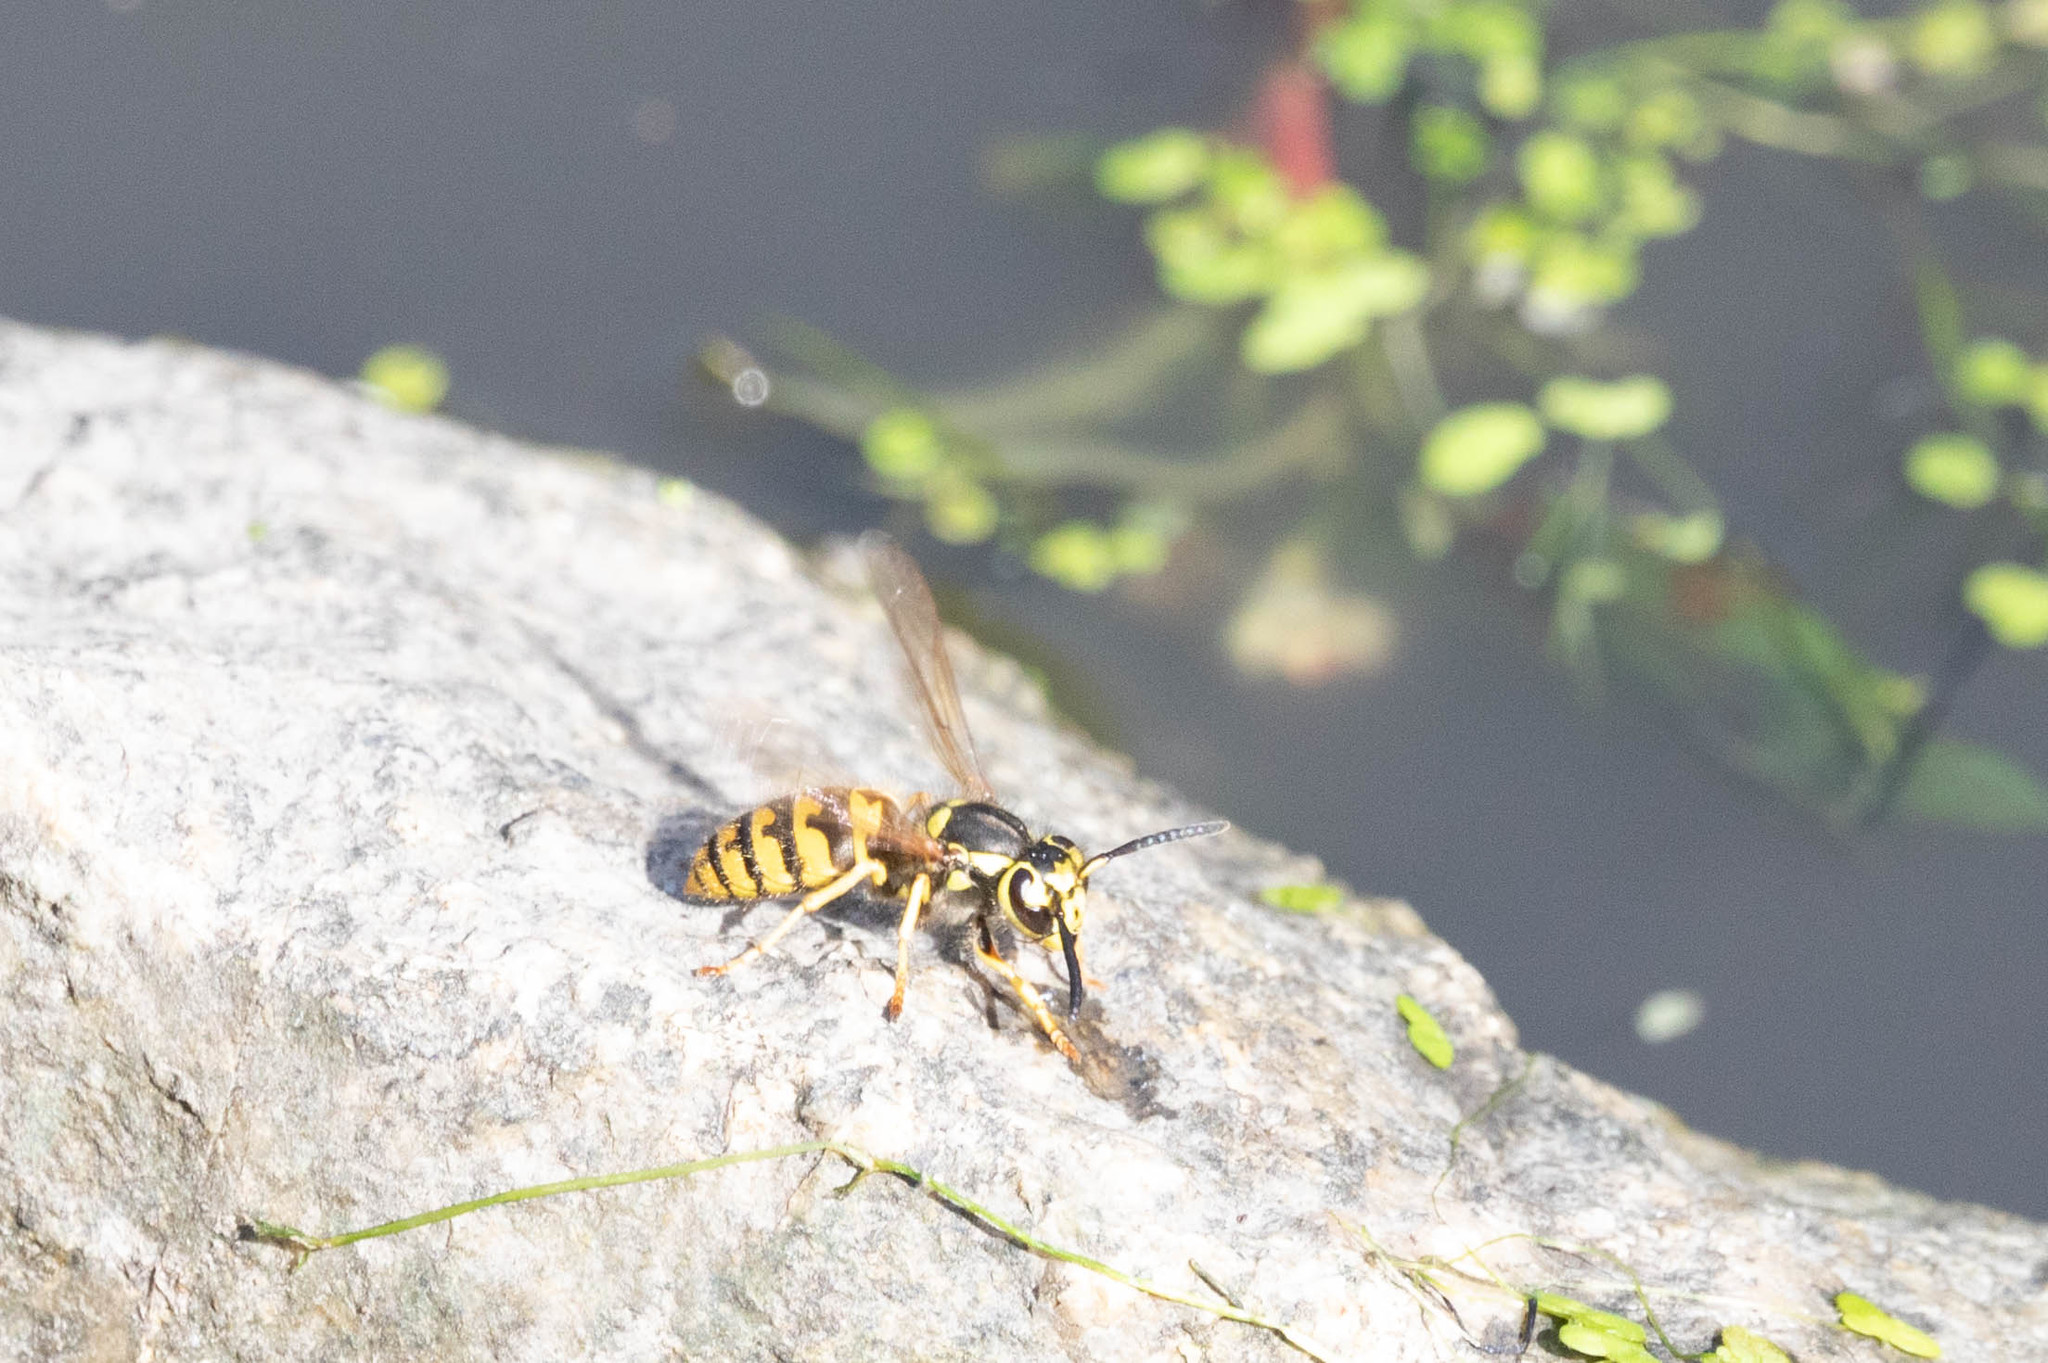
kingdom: Animalia
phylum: Arthropoda
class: Insecta
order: Hymenoptera
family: Vespidae
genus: Vespula
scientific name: Vespula pensylvanica
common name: Western yellowjacket
